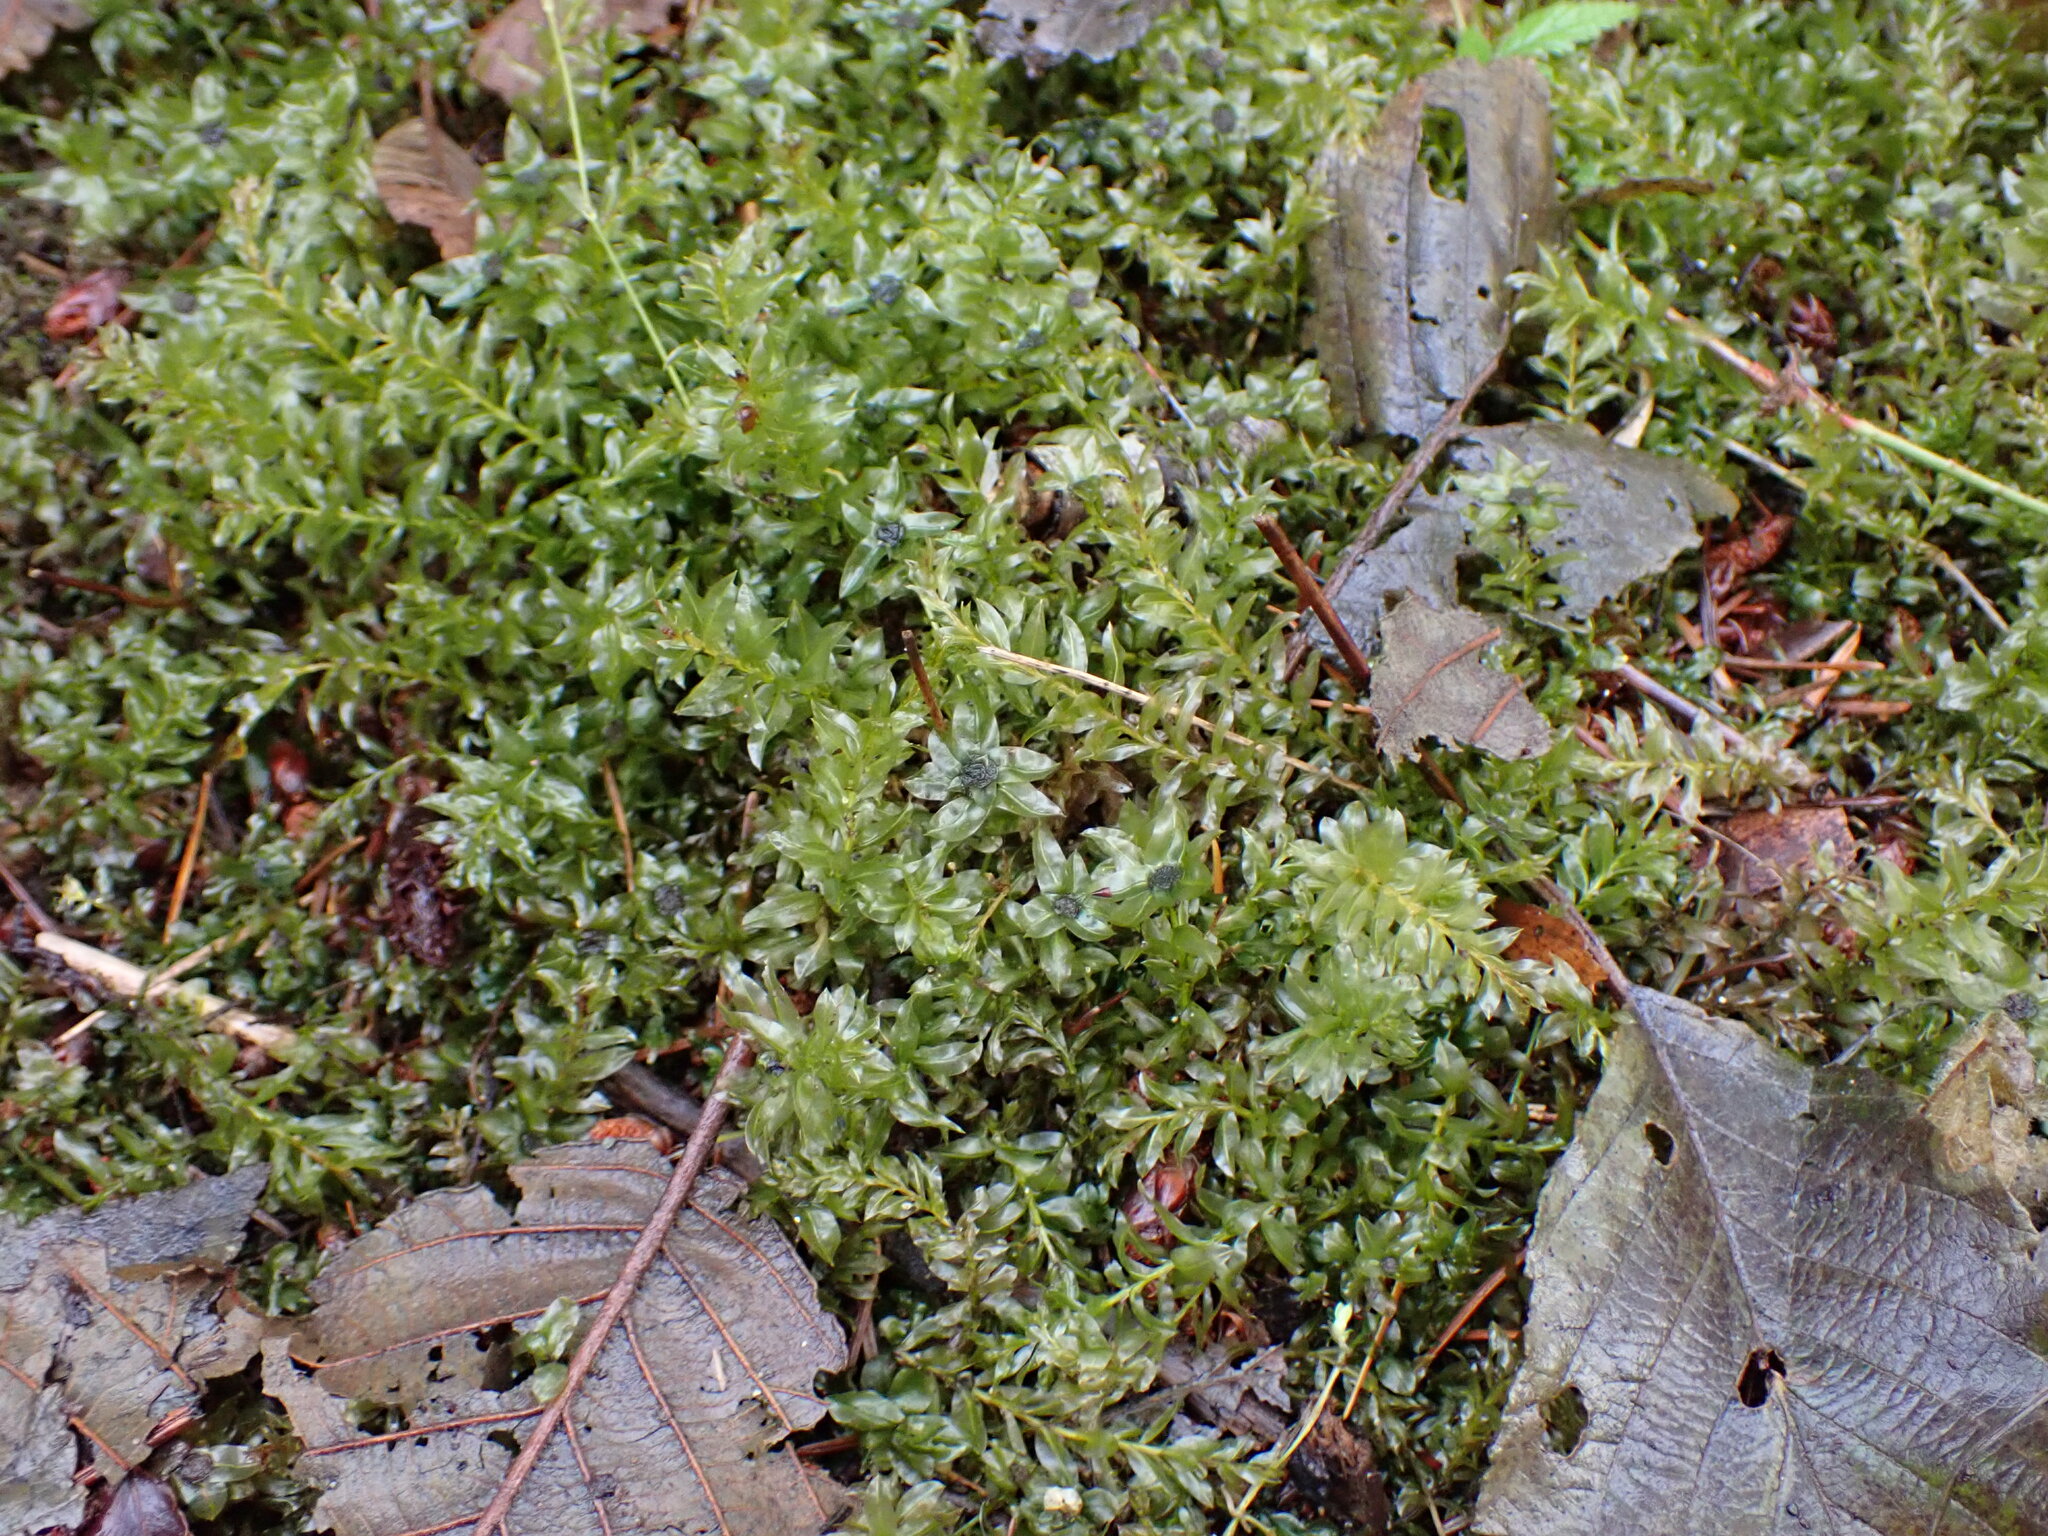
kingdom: Plantae
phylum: Bryophyta
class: Bryopsida
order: Bryales
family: Mniaceae
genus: Plagiomnium
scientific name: Plagiomnium insigne
